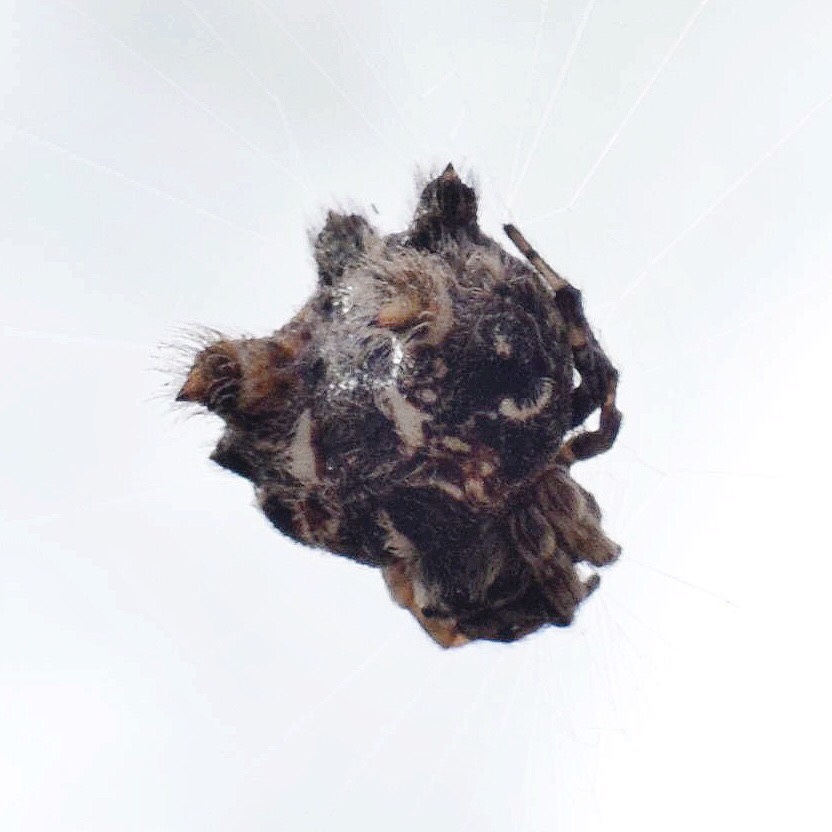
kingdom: Animalia
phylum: Arthropoda
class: Arachnida
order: Araneae
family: Araneidae
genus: Afracantha
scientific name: Afracantha camerunensis
